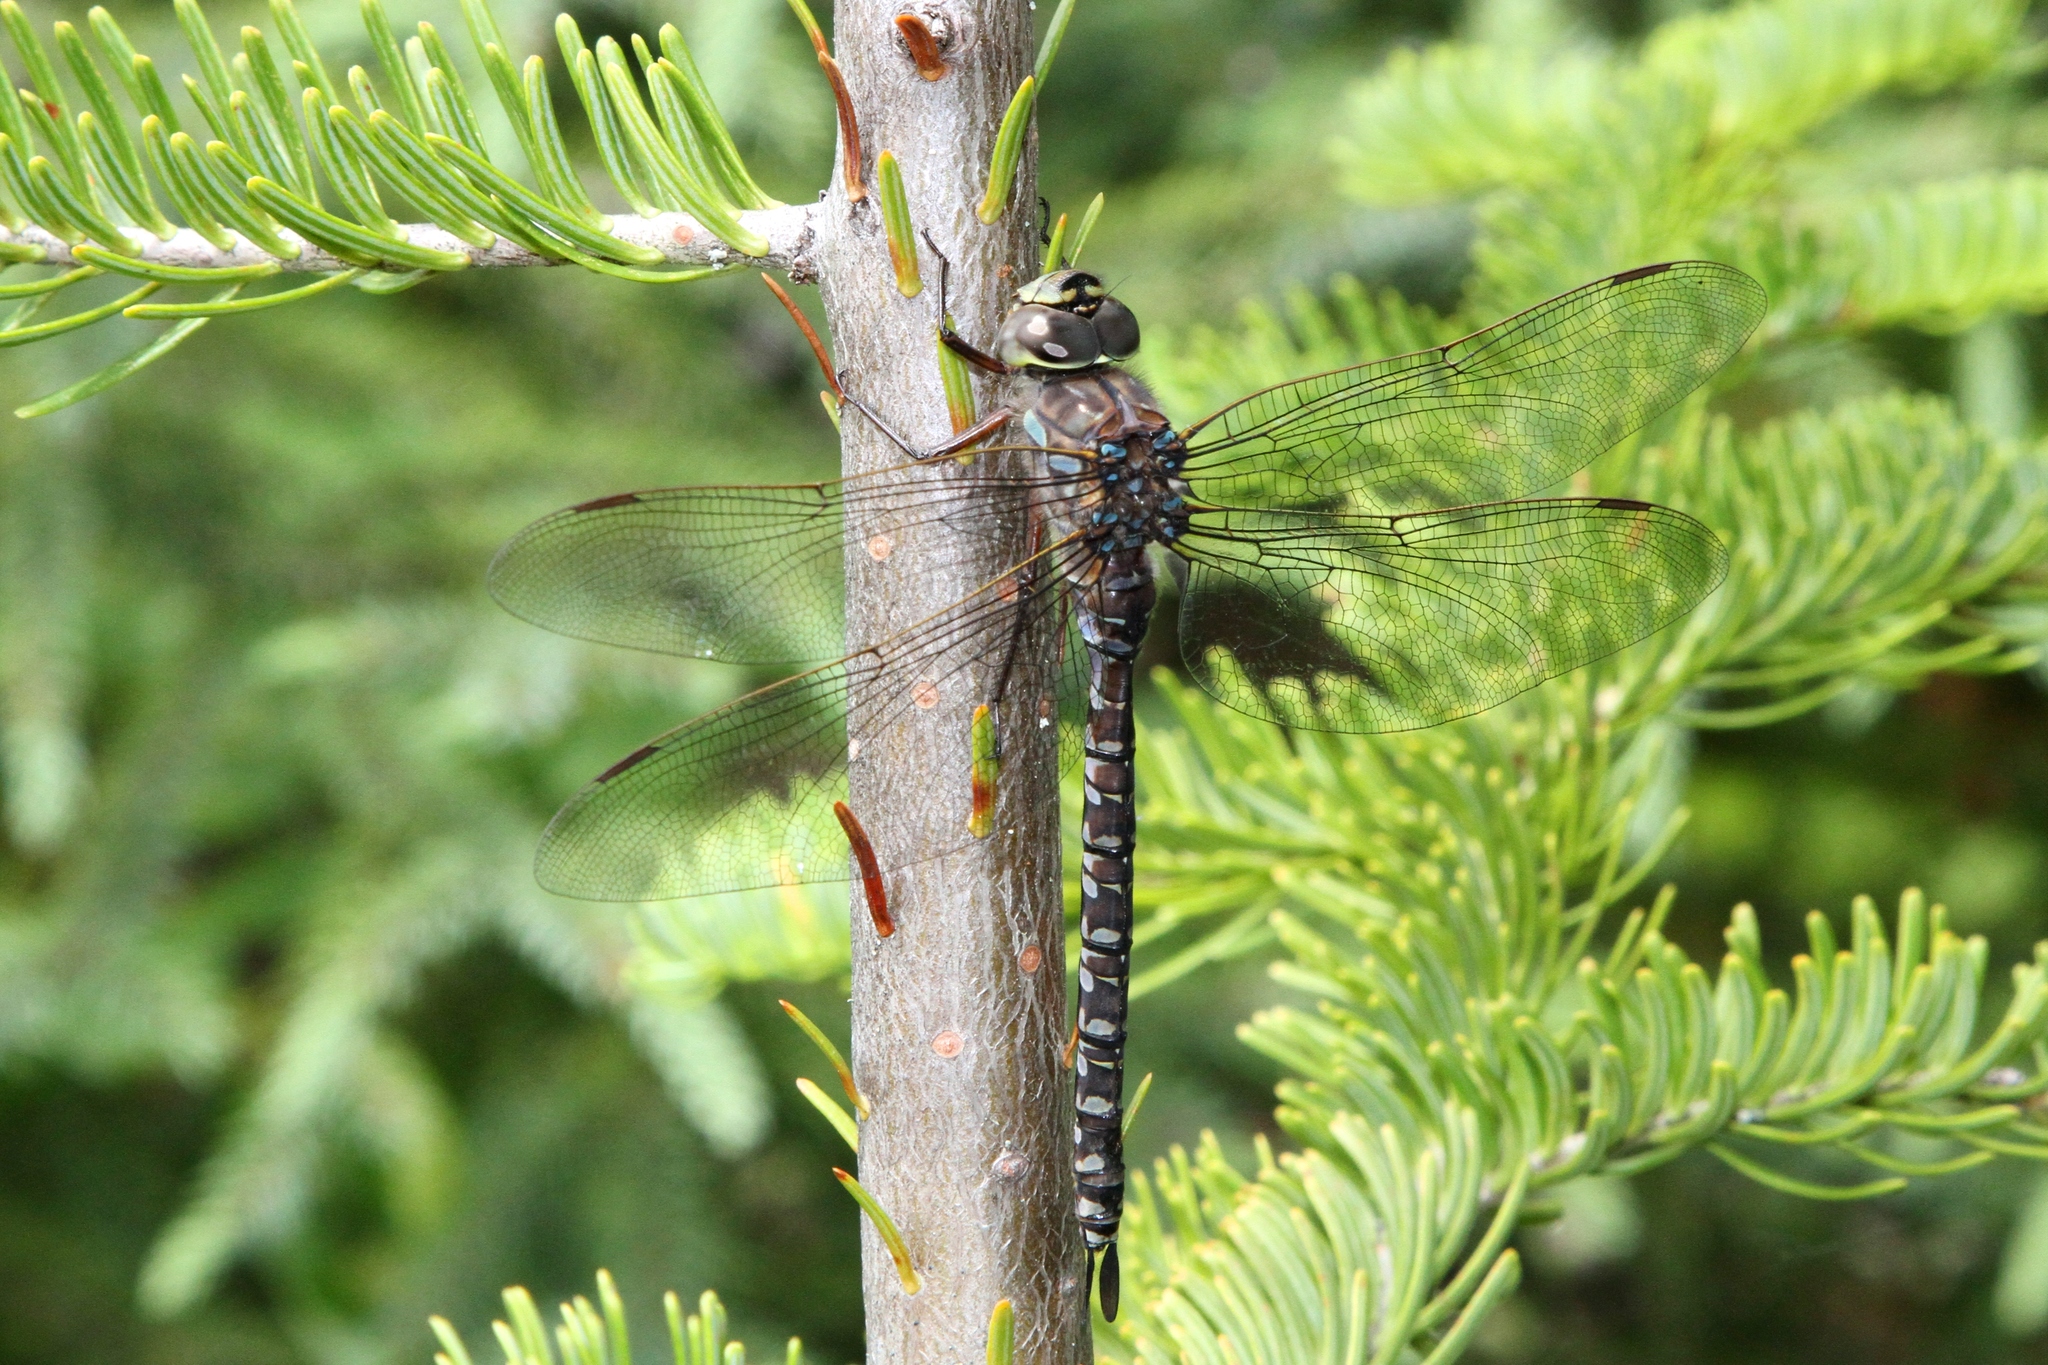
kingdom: Animalia
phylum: Arthropoda
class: Insecta
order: Odonata
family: Aeshnidae
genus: Aeshna
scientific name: Aeshna eremita
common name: Lake darner
